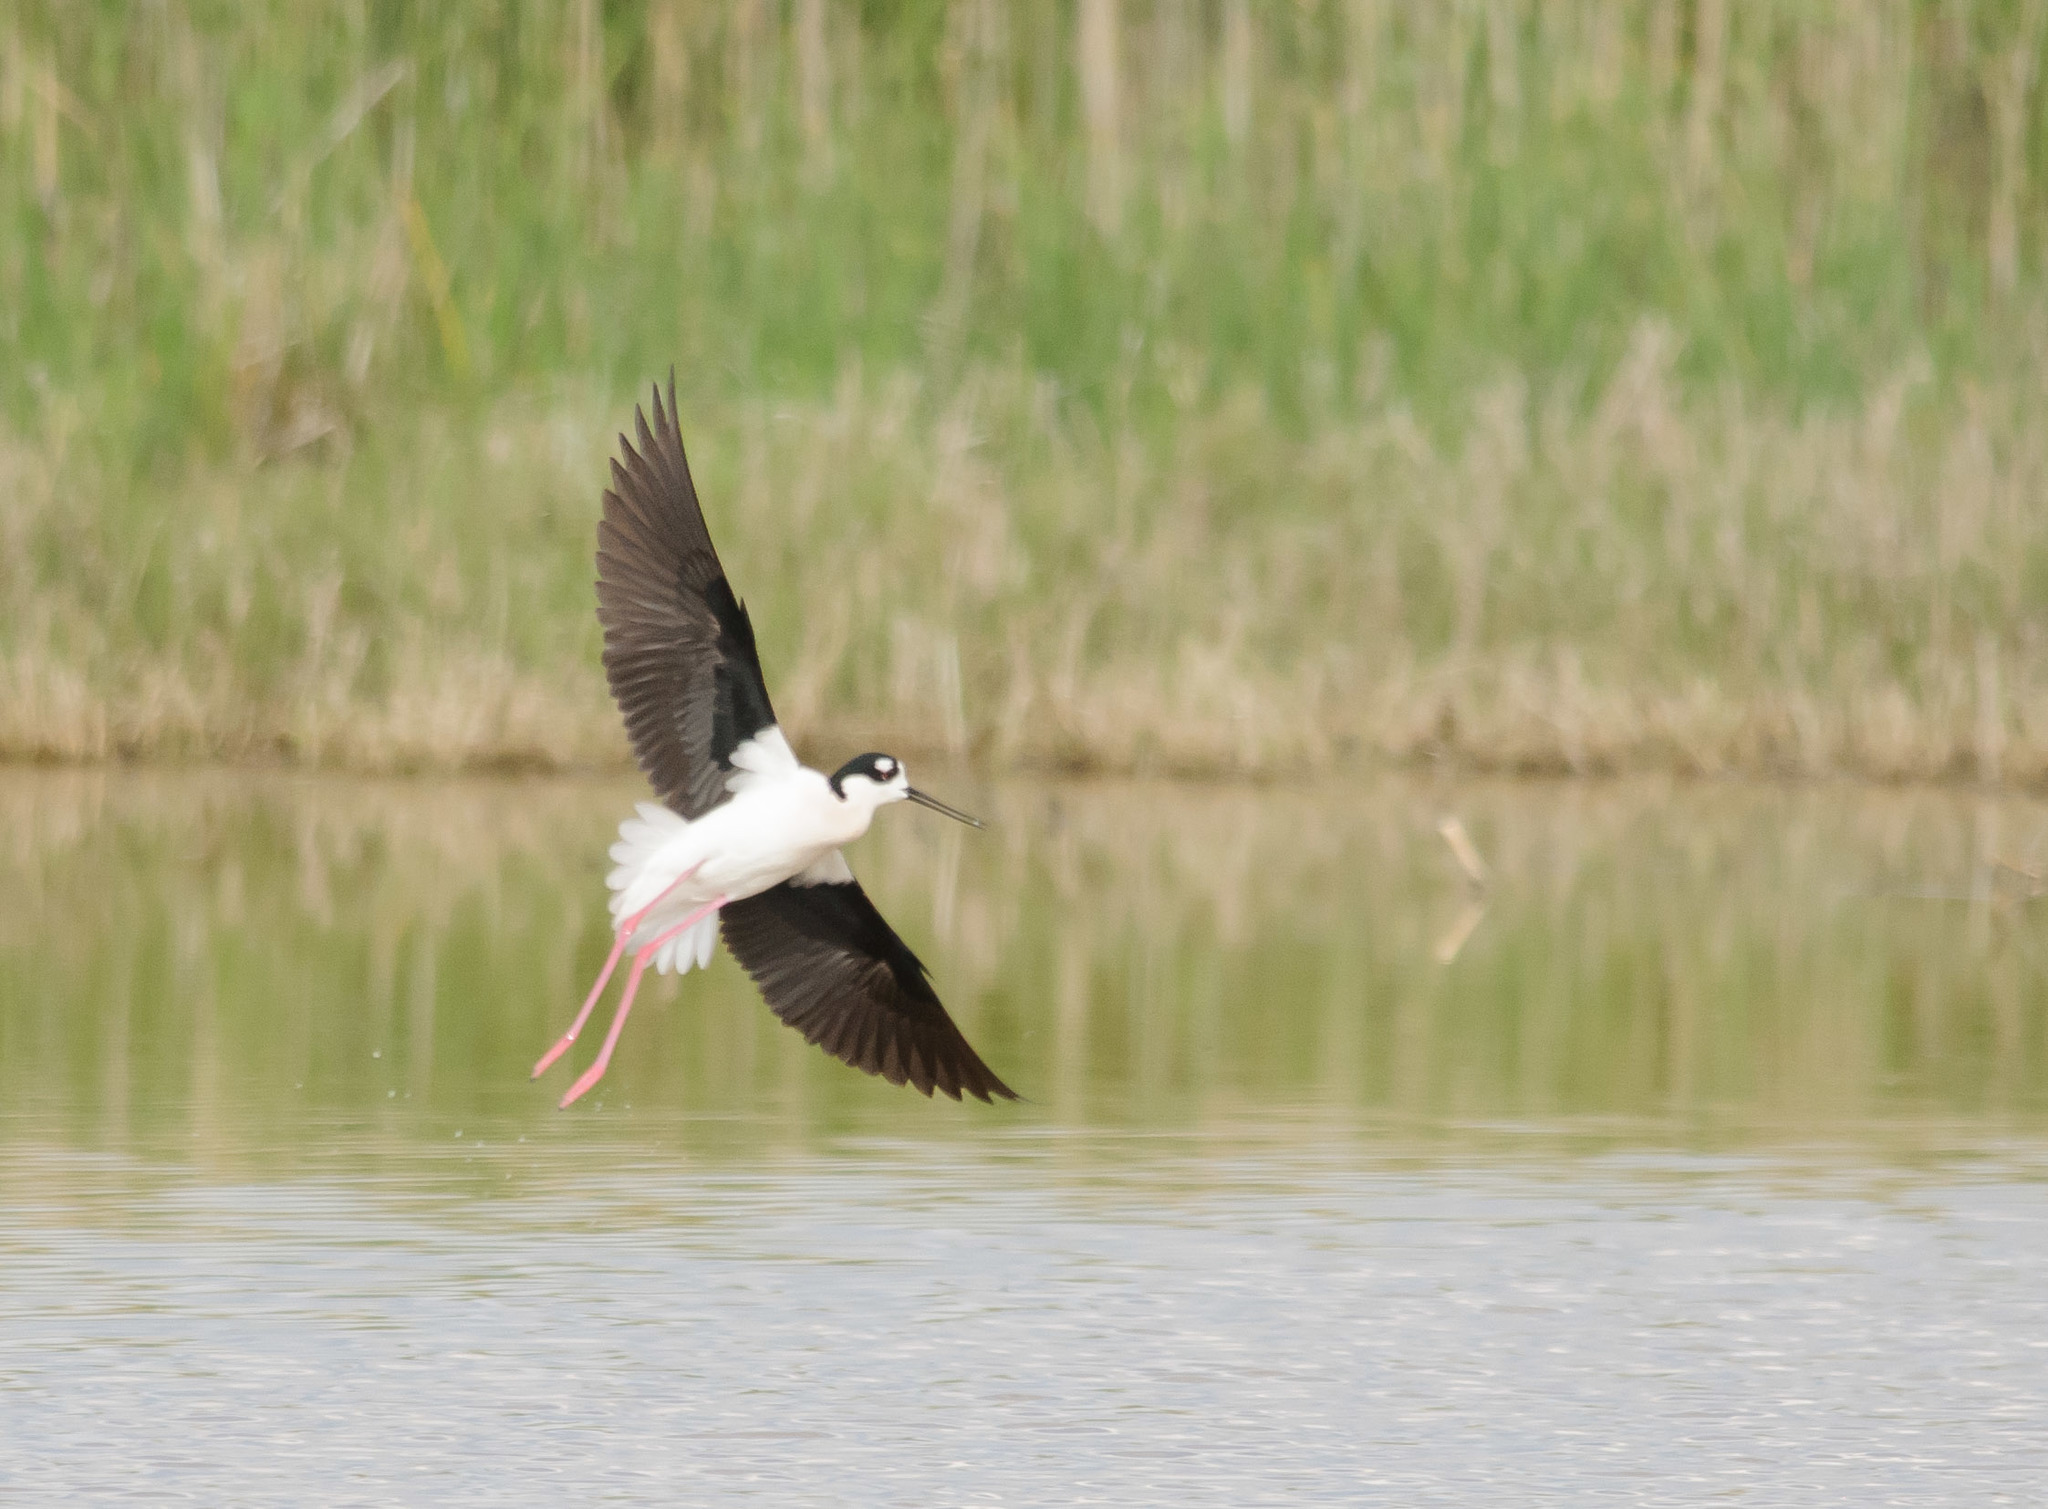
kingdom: Animalia
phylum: Chordata
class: Aves
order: Charadriiformes
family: Recurvirostridae
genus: Himantopus
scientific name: Himantopus mexicanus
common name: Black-necked stilt
